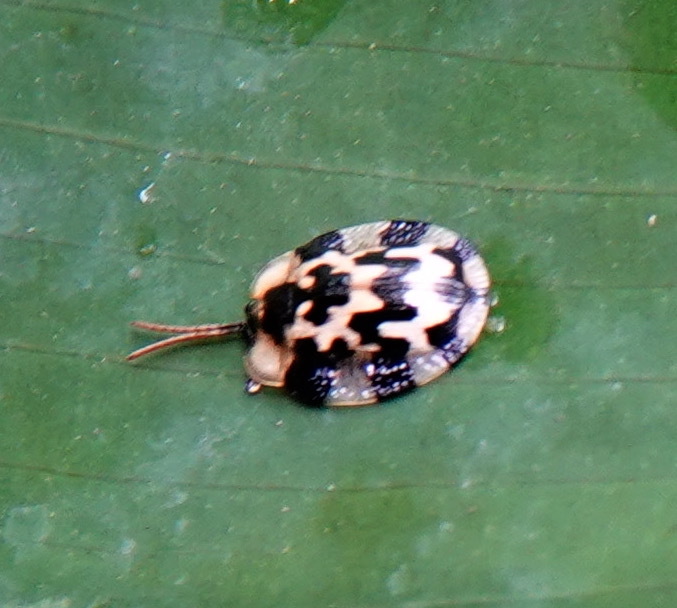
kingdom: Animalia
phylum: Arthropoda
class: Insecta
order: Coleoptera
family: Chrysomelidae
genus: Aslamidium
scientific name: Aslamidium bolivianum
